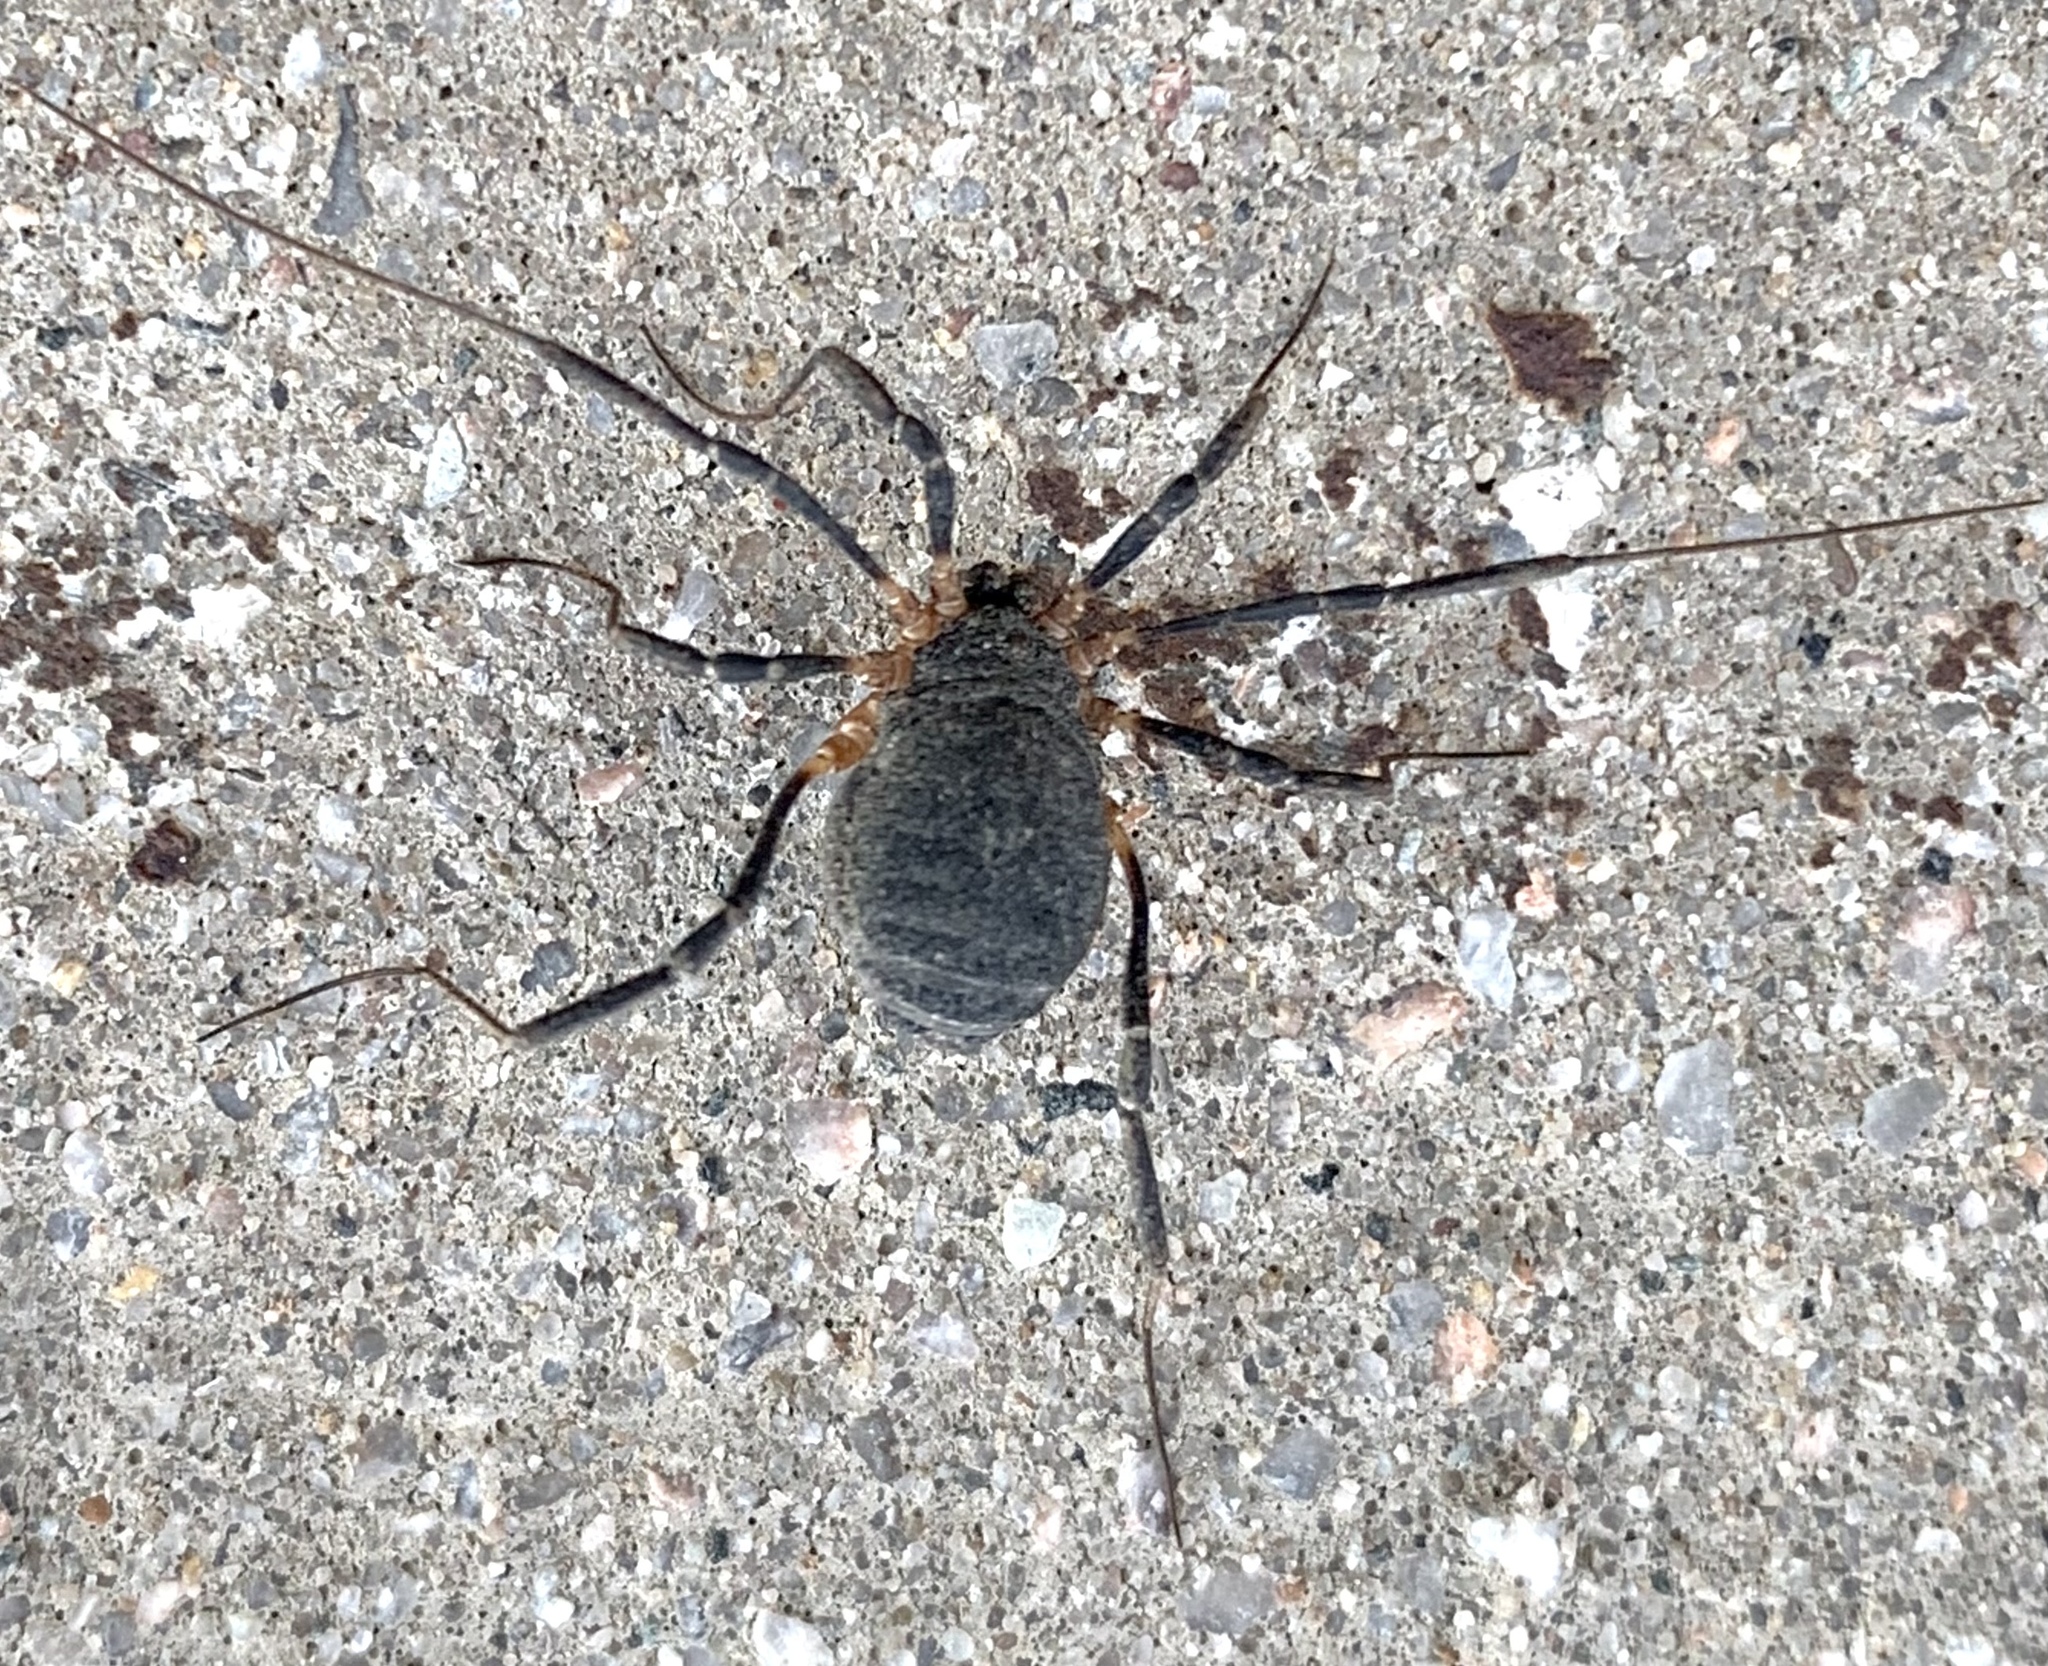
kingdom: Animalia
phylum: Arthropoda
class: Arachnida
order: Opiliones
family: Sclerosomatidae
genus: Eumesosoma
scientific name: Eumesosoma roeweri
